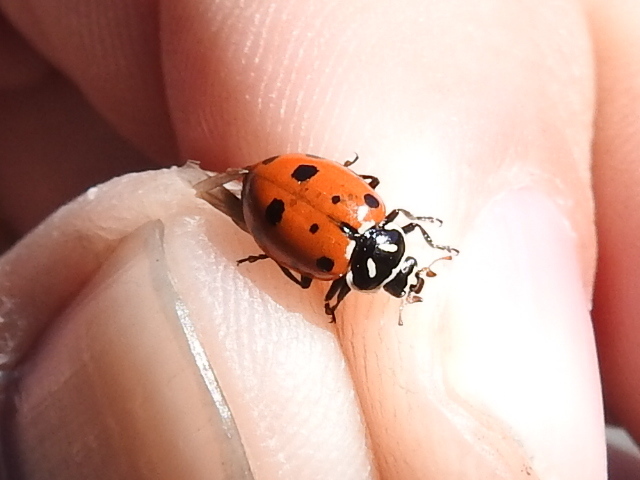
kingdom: Animalia
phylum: Arthropoda
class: Insecta
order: Coleoptera
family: Coccinellidae
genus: Hippodamia
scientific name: Hippodamia convergens
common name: Convergent lady beetle
